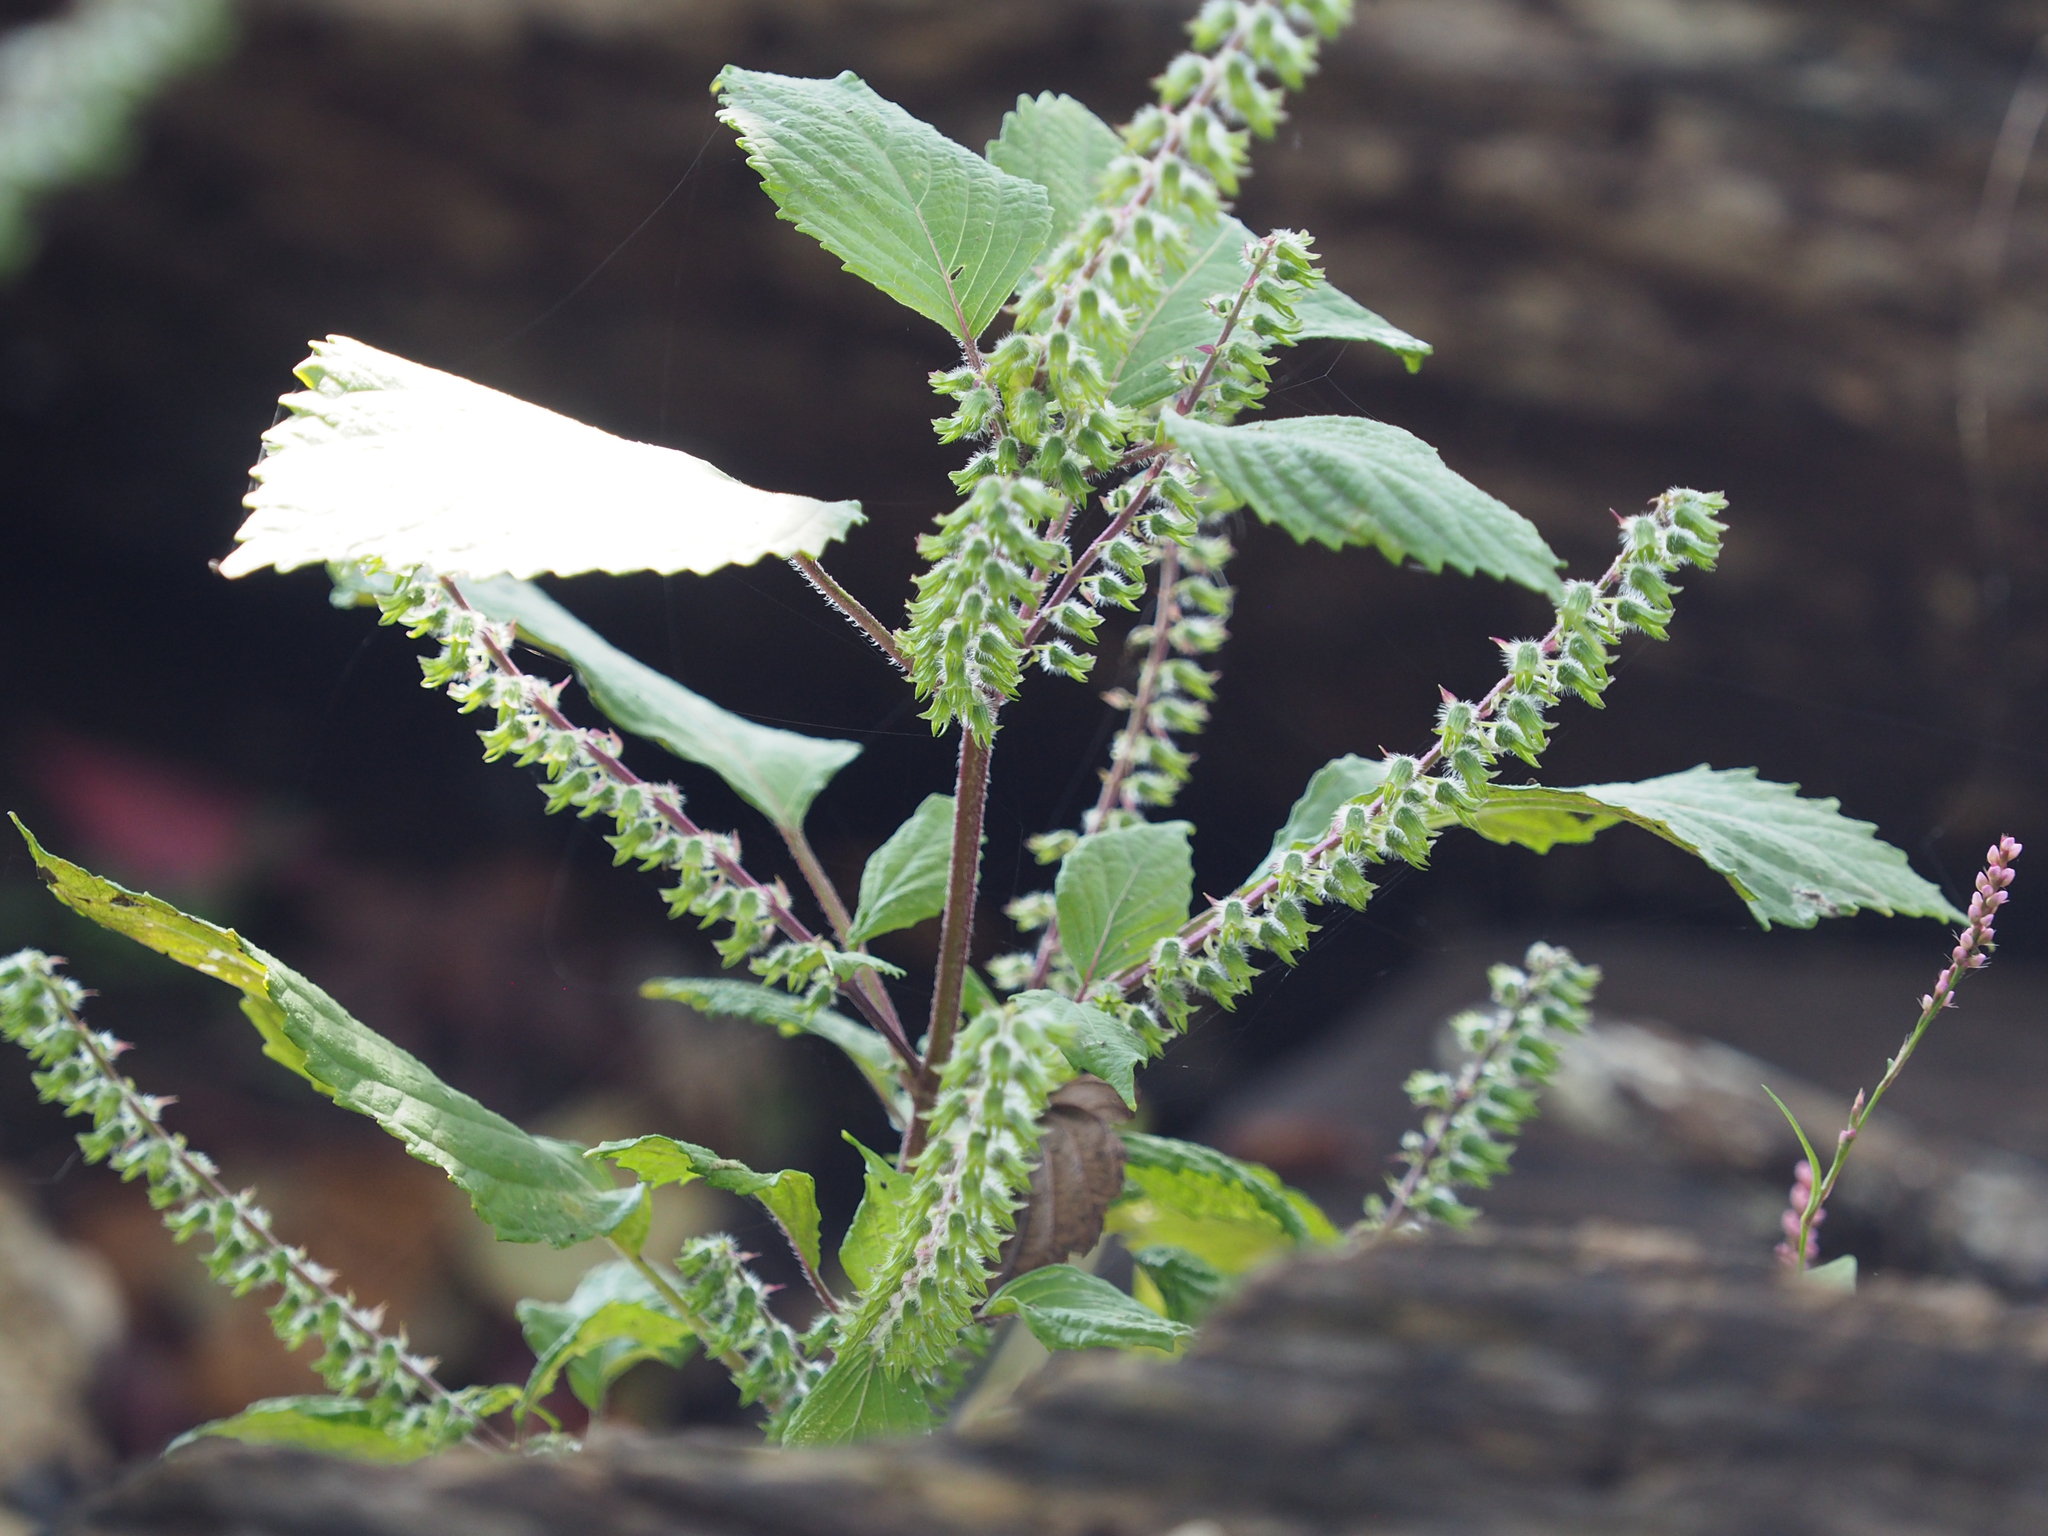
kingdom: Plantae
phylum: Tracheophyta
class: Magnoliopsida
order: Lamiales
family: Lamiaceae
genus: Perilla
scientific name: Perilla frutescens
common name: Perilla
